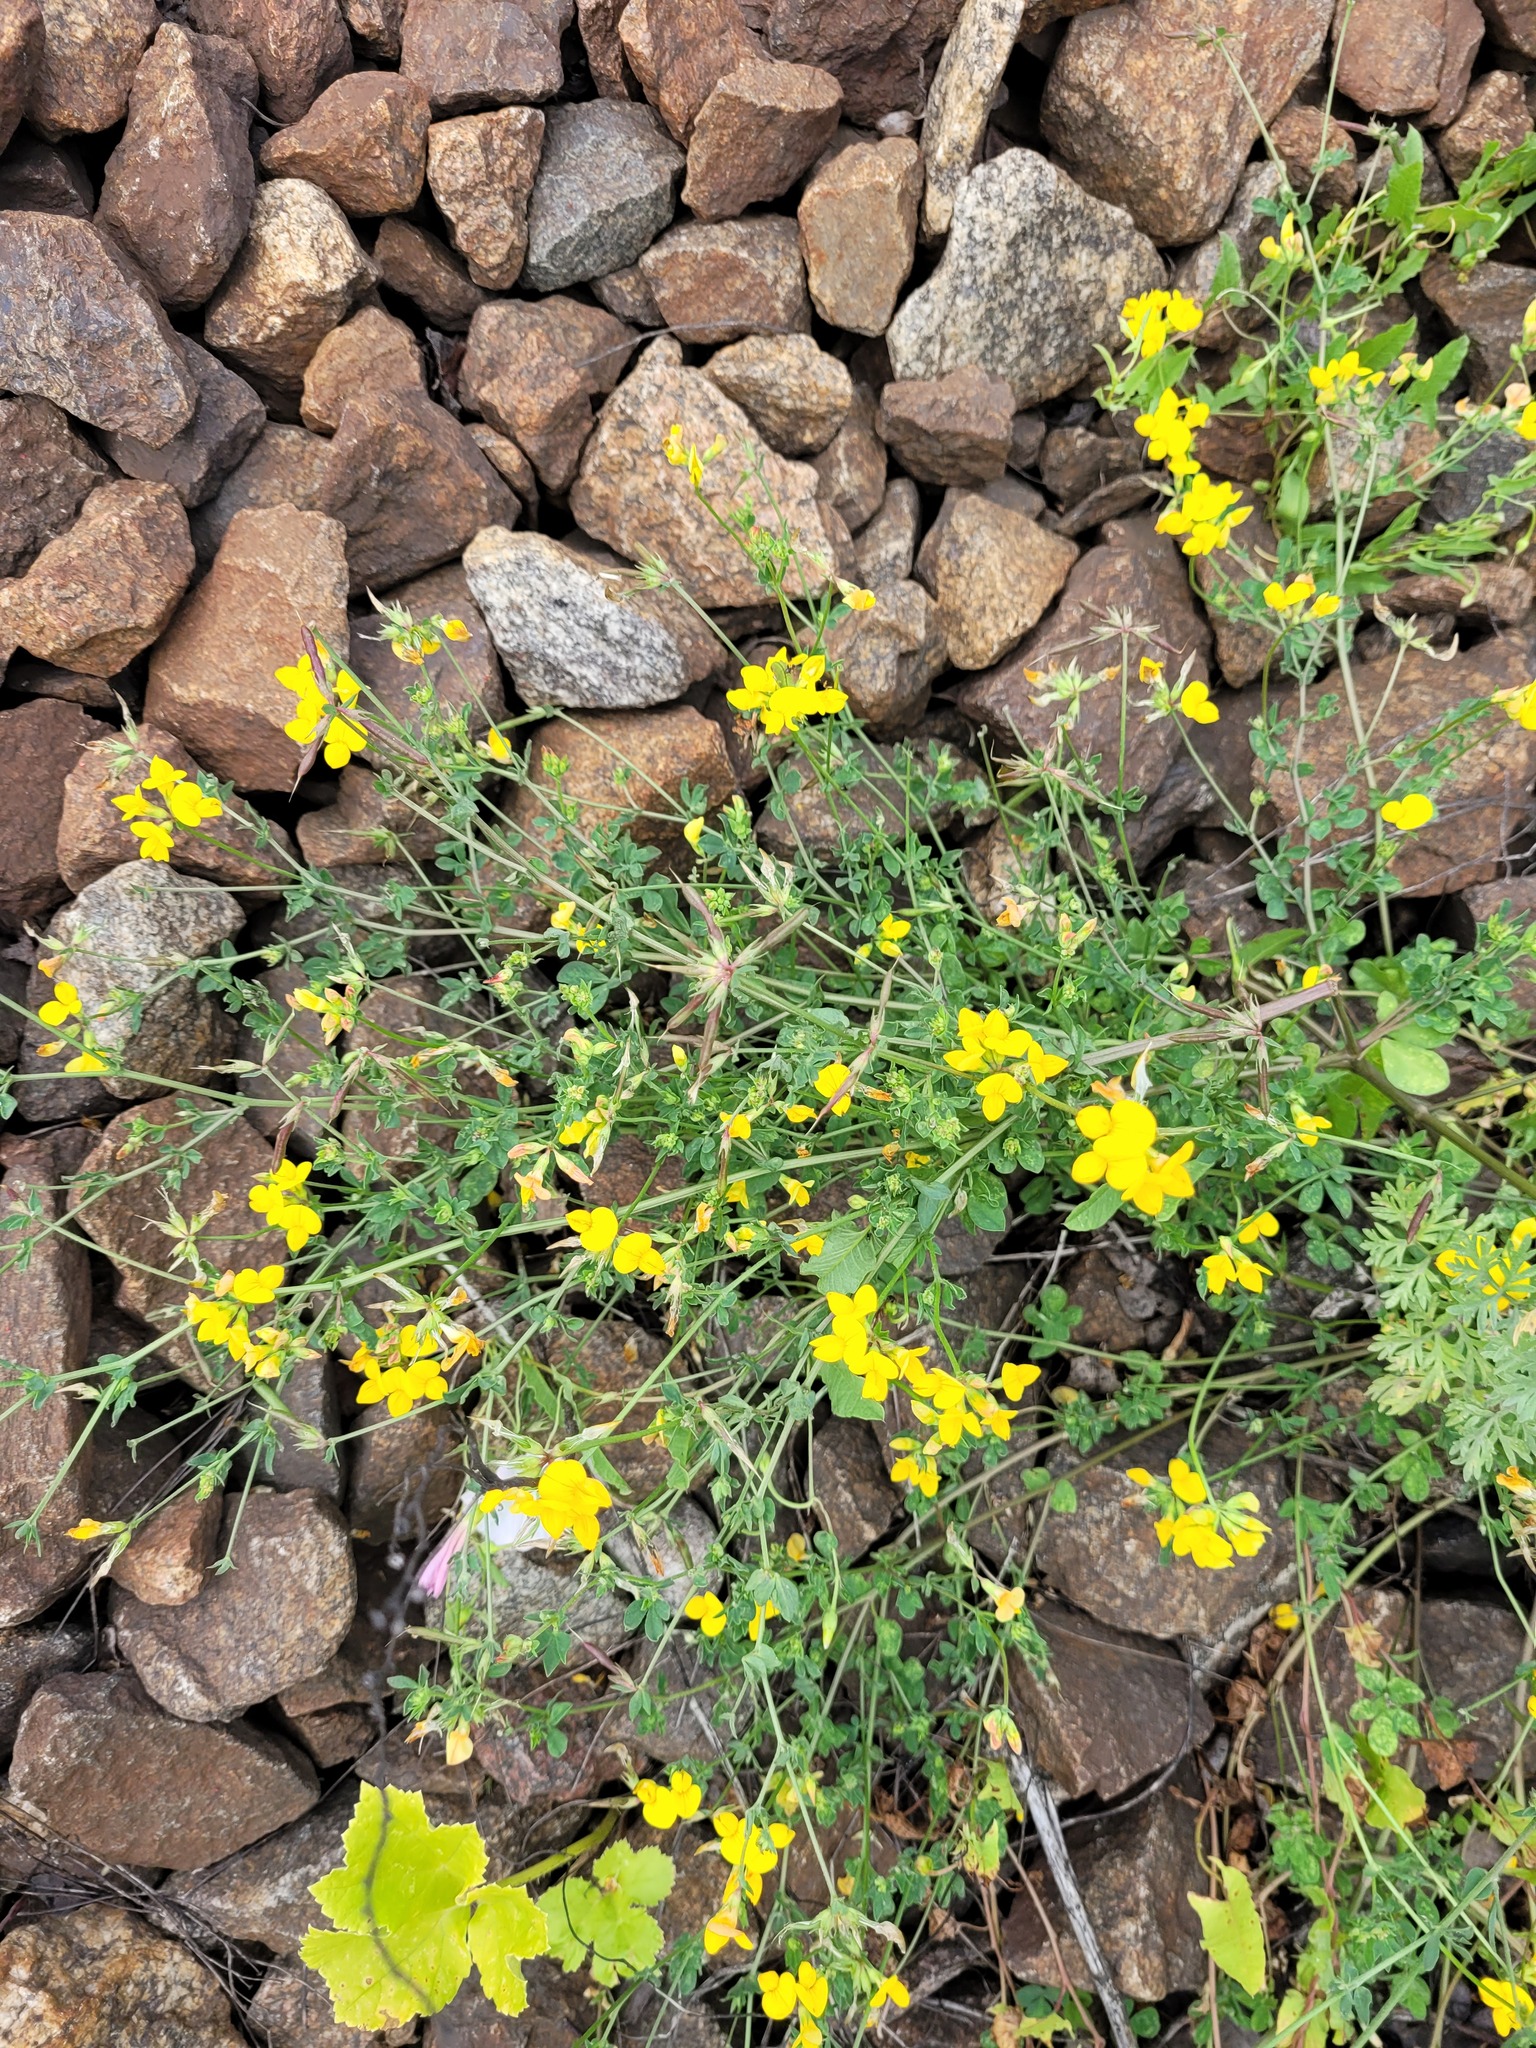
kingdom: Plantae
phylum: Tracheophyta
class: Magnoliopsida
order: Fabales
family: Fabaceae
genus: Lotus
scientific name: Lotus corniculatus
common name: Common bird's-foot-trefoil
